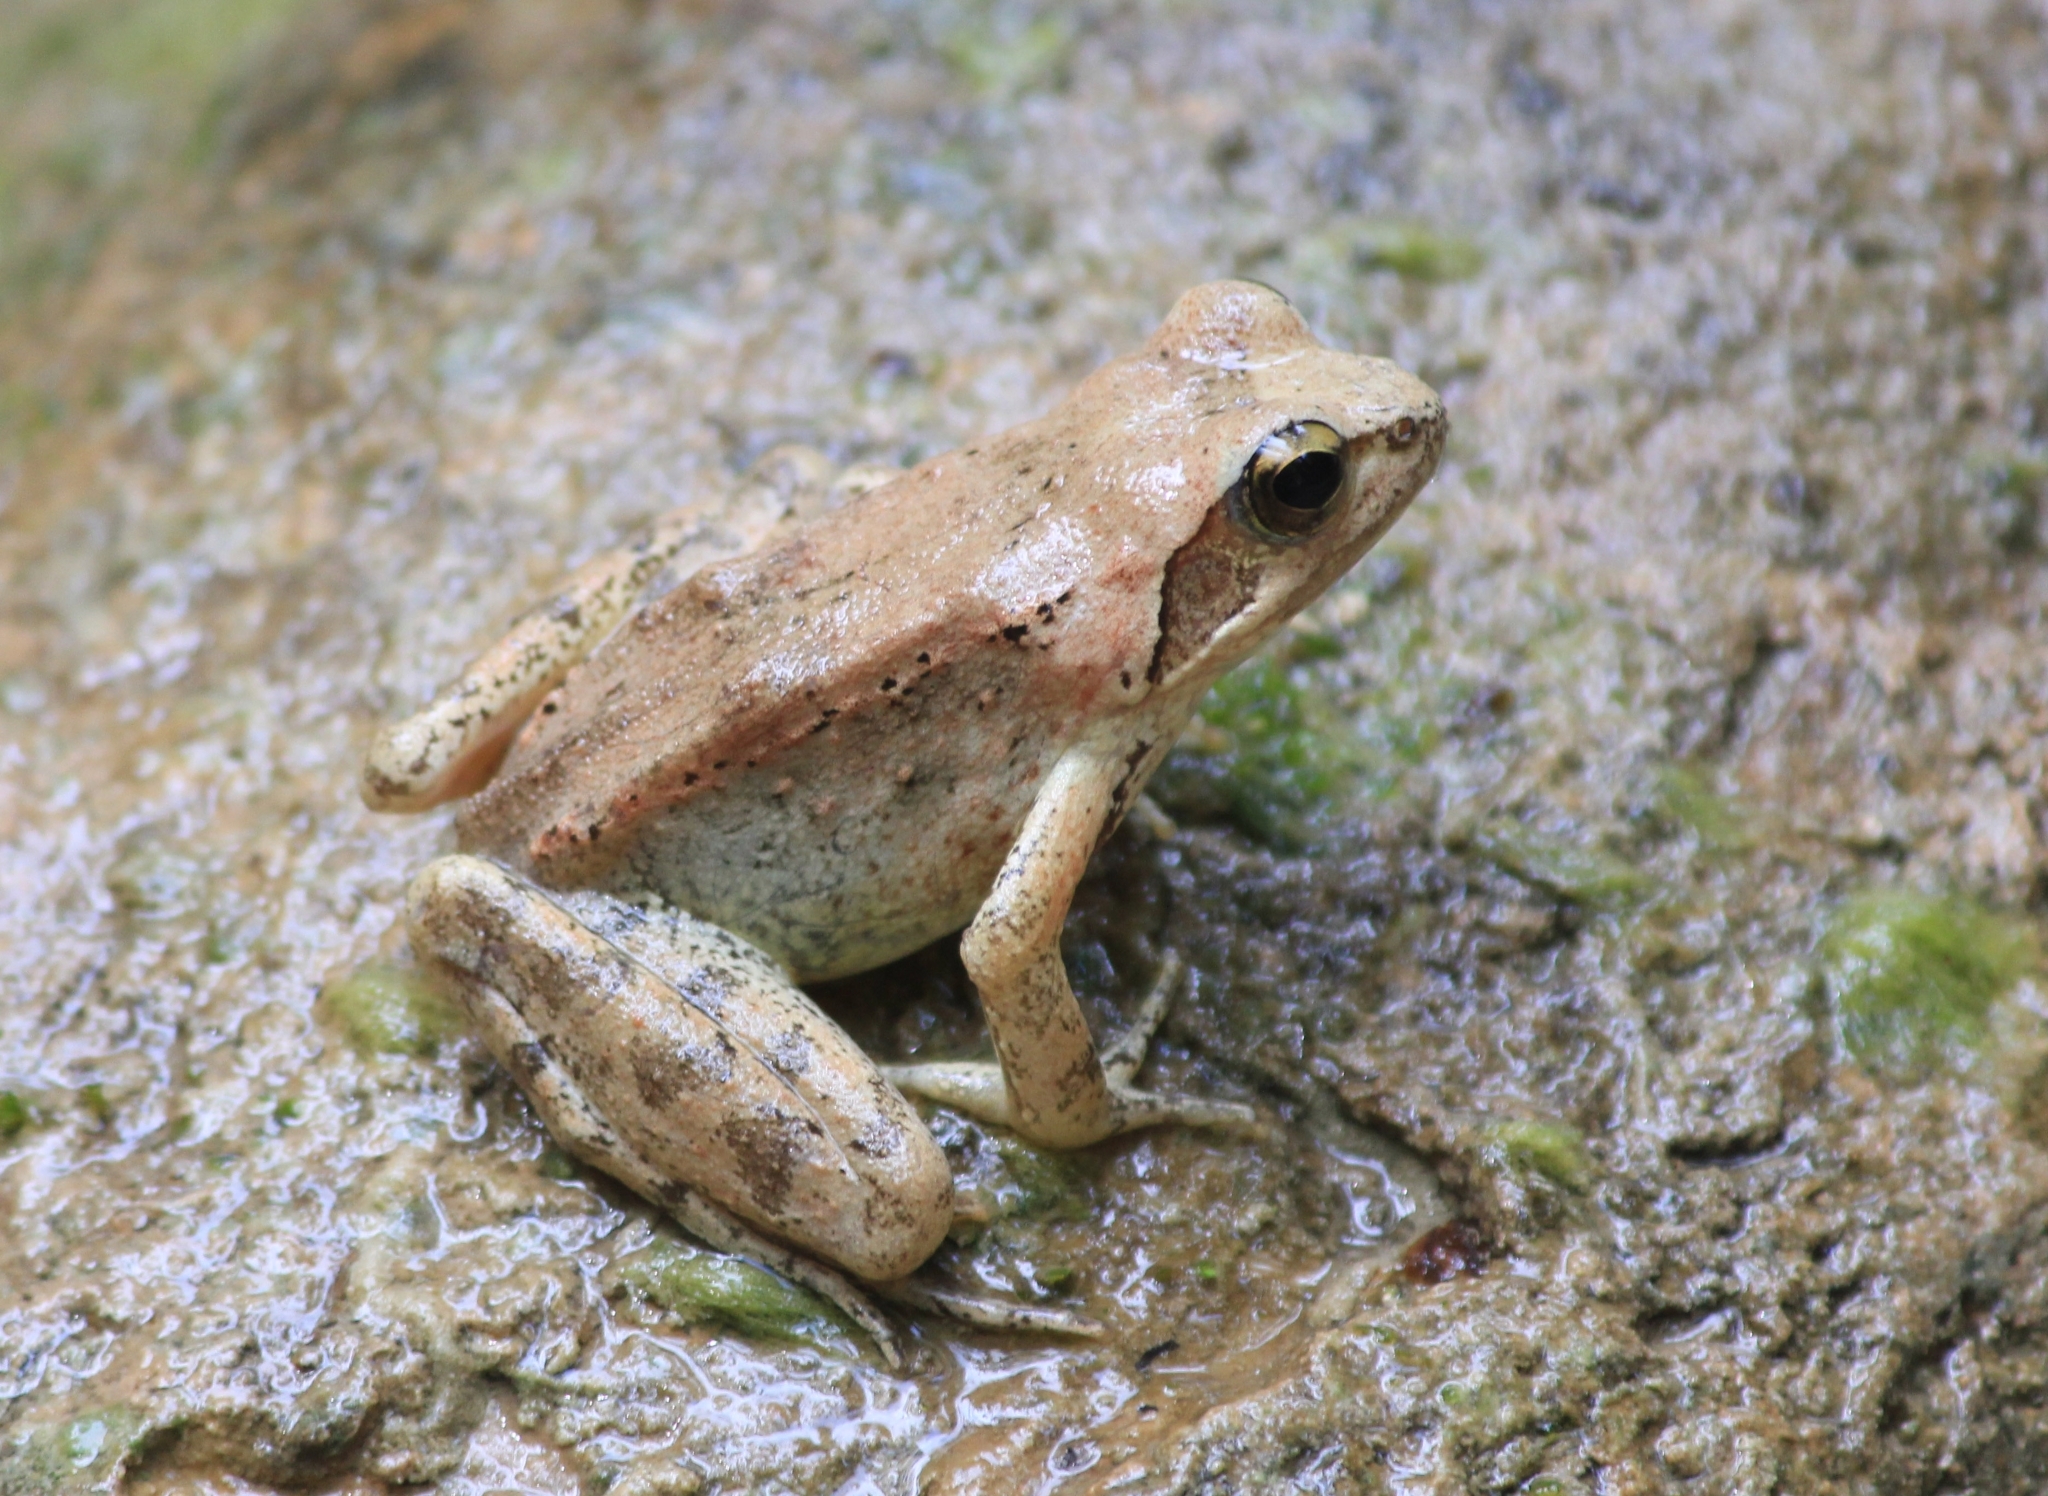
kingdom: Animalia
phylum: Chordata
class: Amphibia
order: Anura
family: Ranidae
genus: Rana
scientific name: Rana graeca
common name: Greek stream frog
